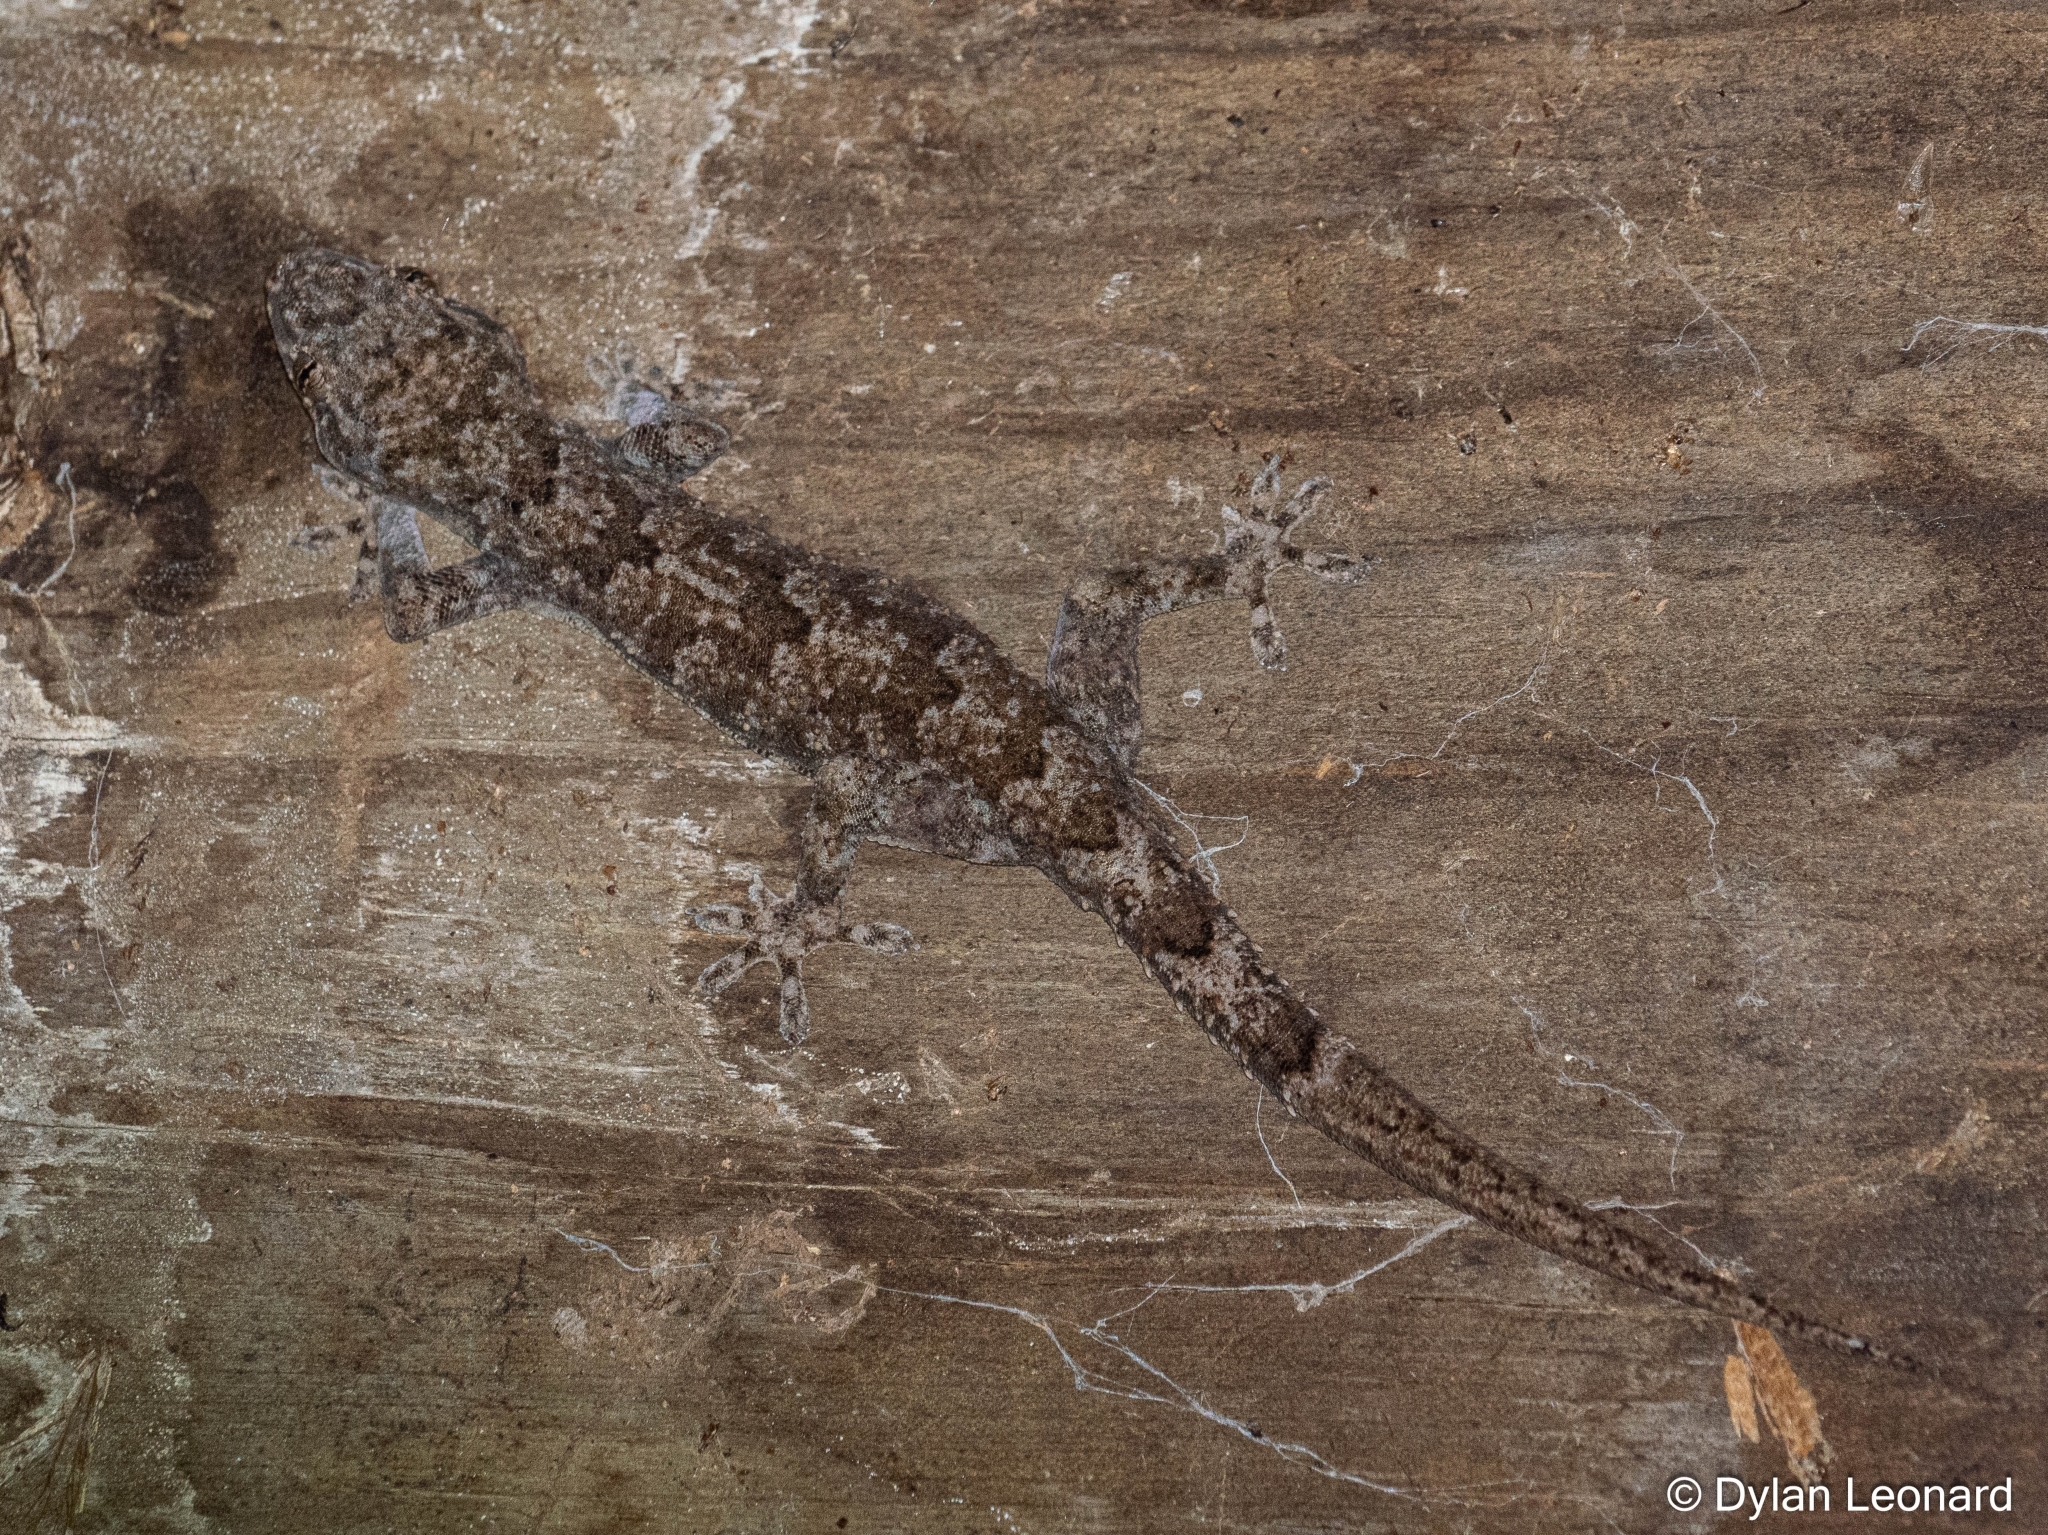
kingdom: Animalia
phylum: Chordata
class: Squamata
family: Gekkonidae
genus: Hemidactylus
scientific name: Hemidactylus mabouia
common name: House gecko
